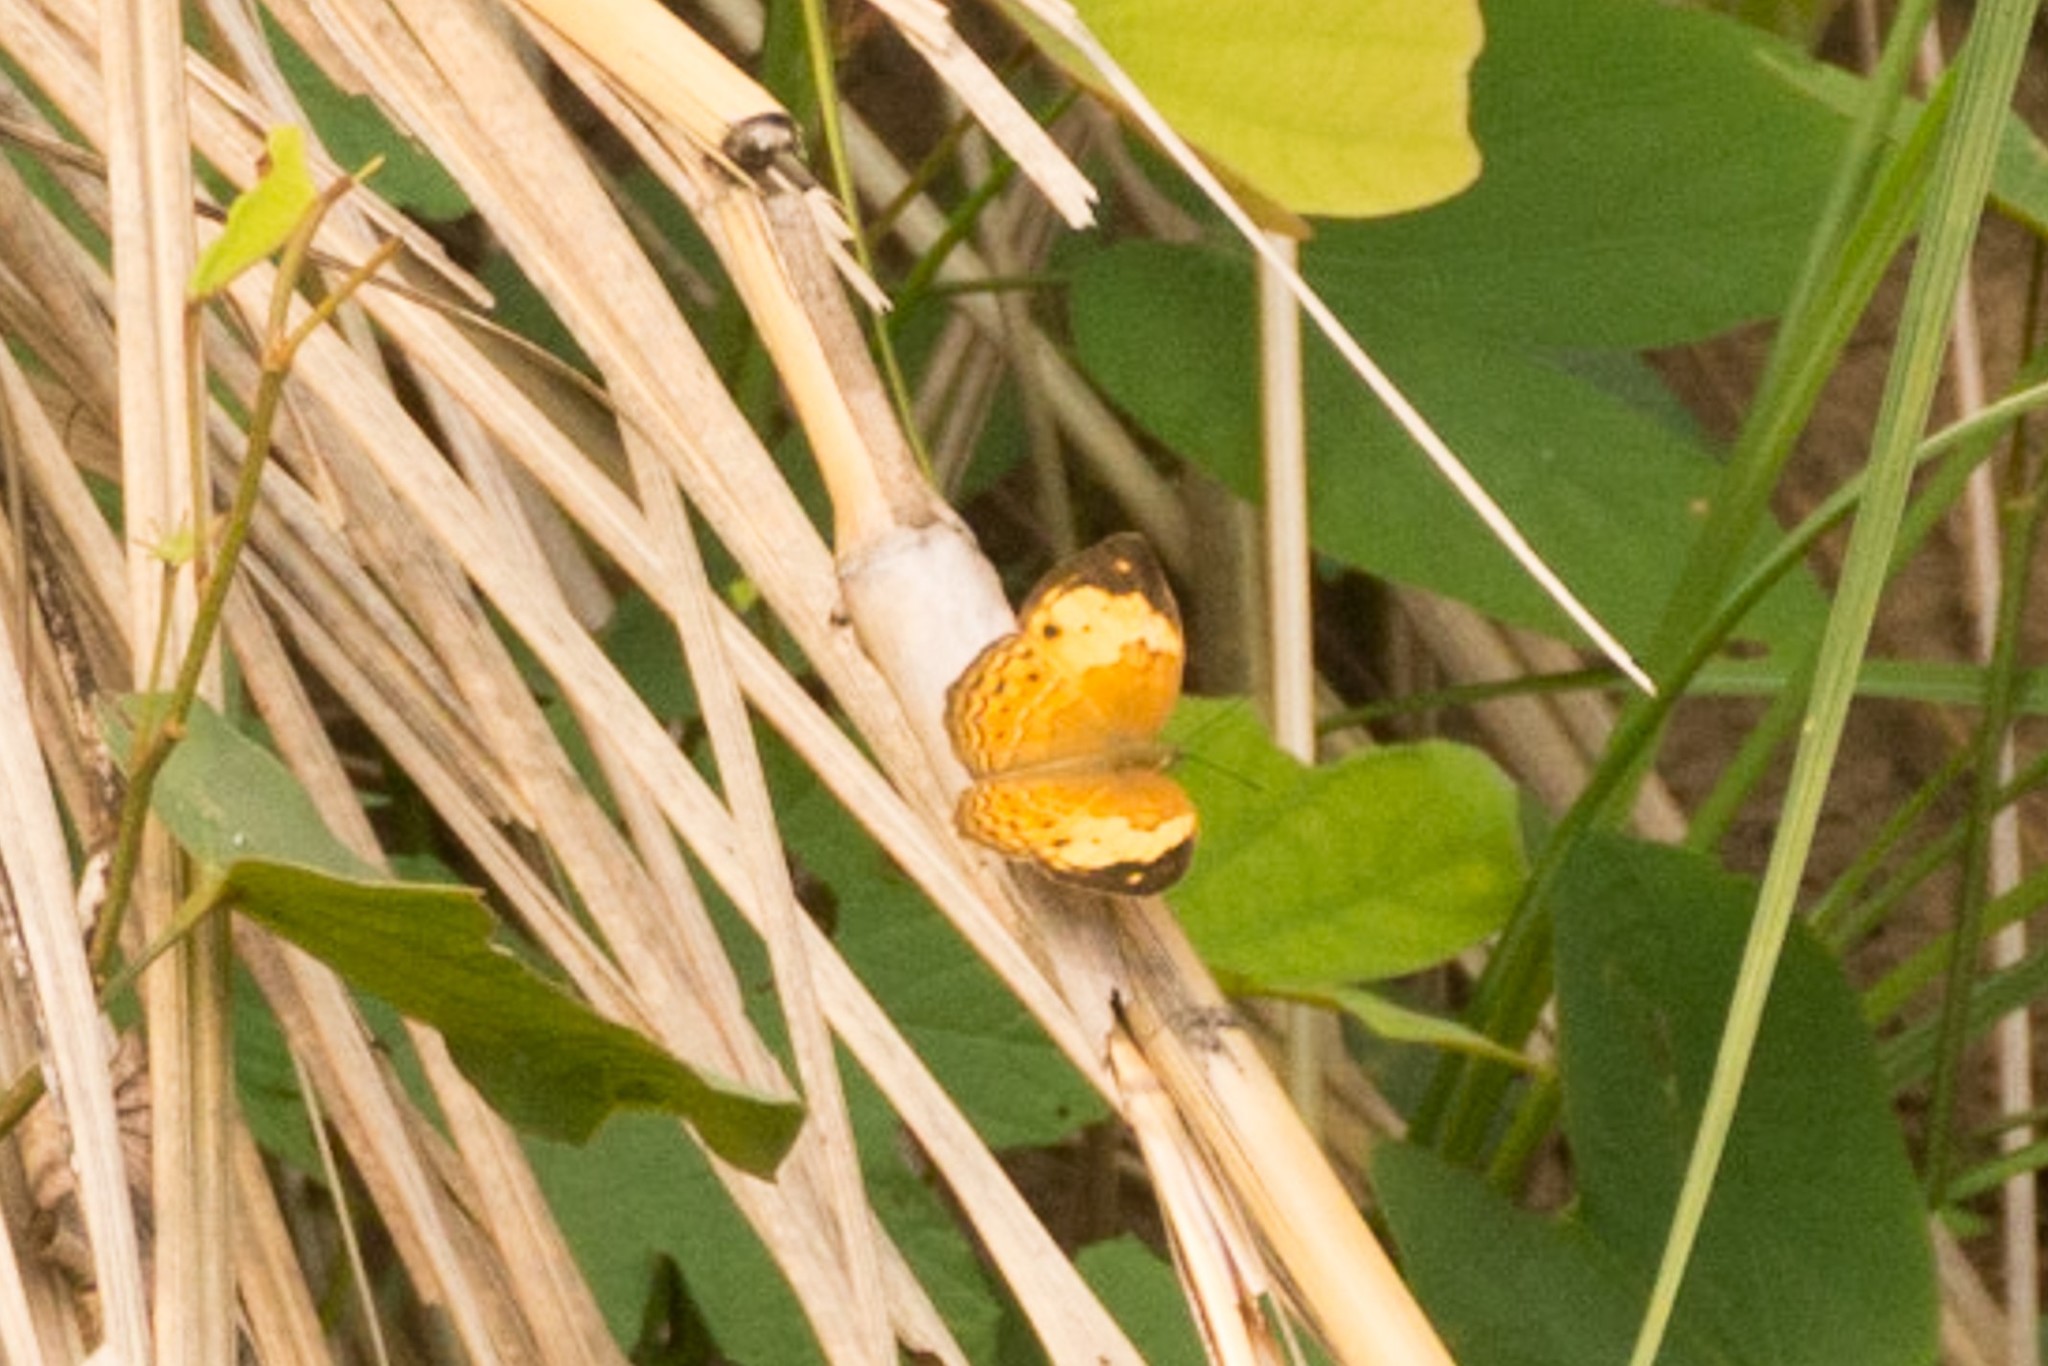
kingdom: Animalia
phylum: Arthropoda
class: Insecta
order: Lepidoptera
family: Nymphalidae
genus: Cupha
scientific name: Cupha erymanthis
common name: Rustic
